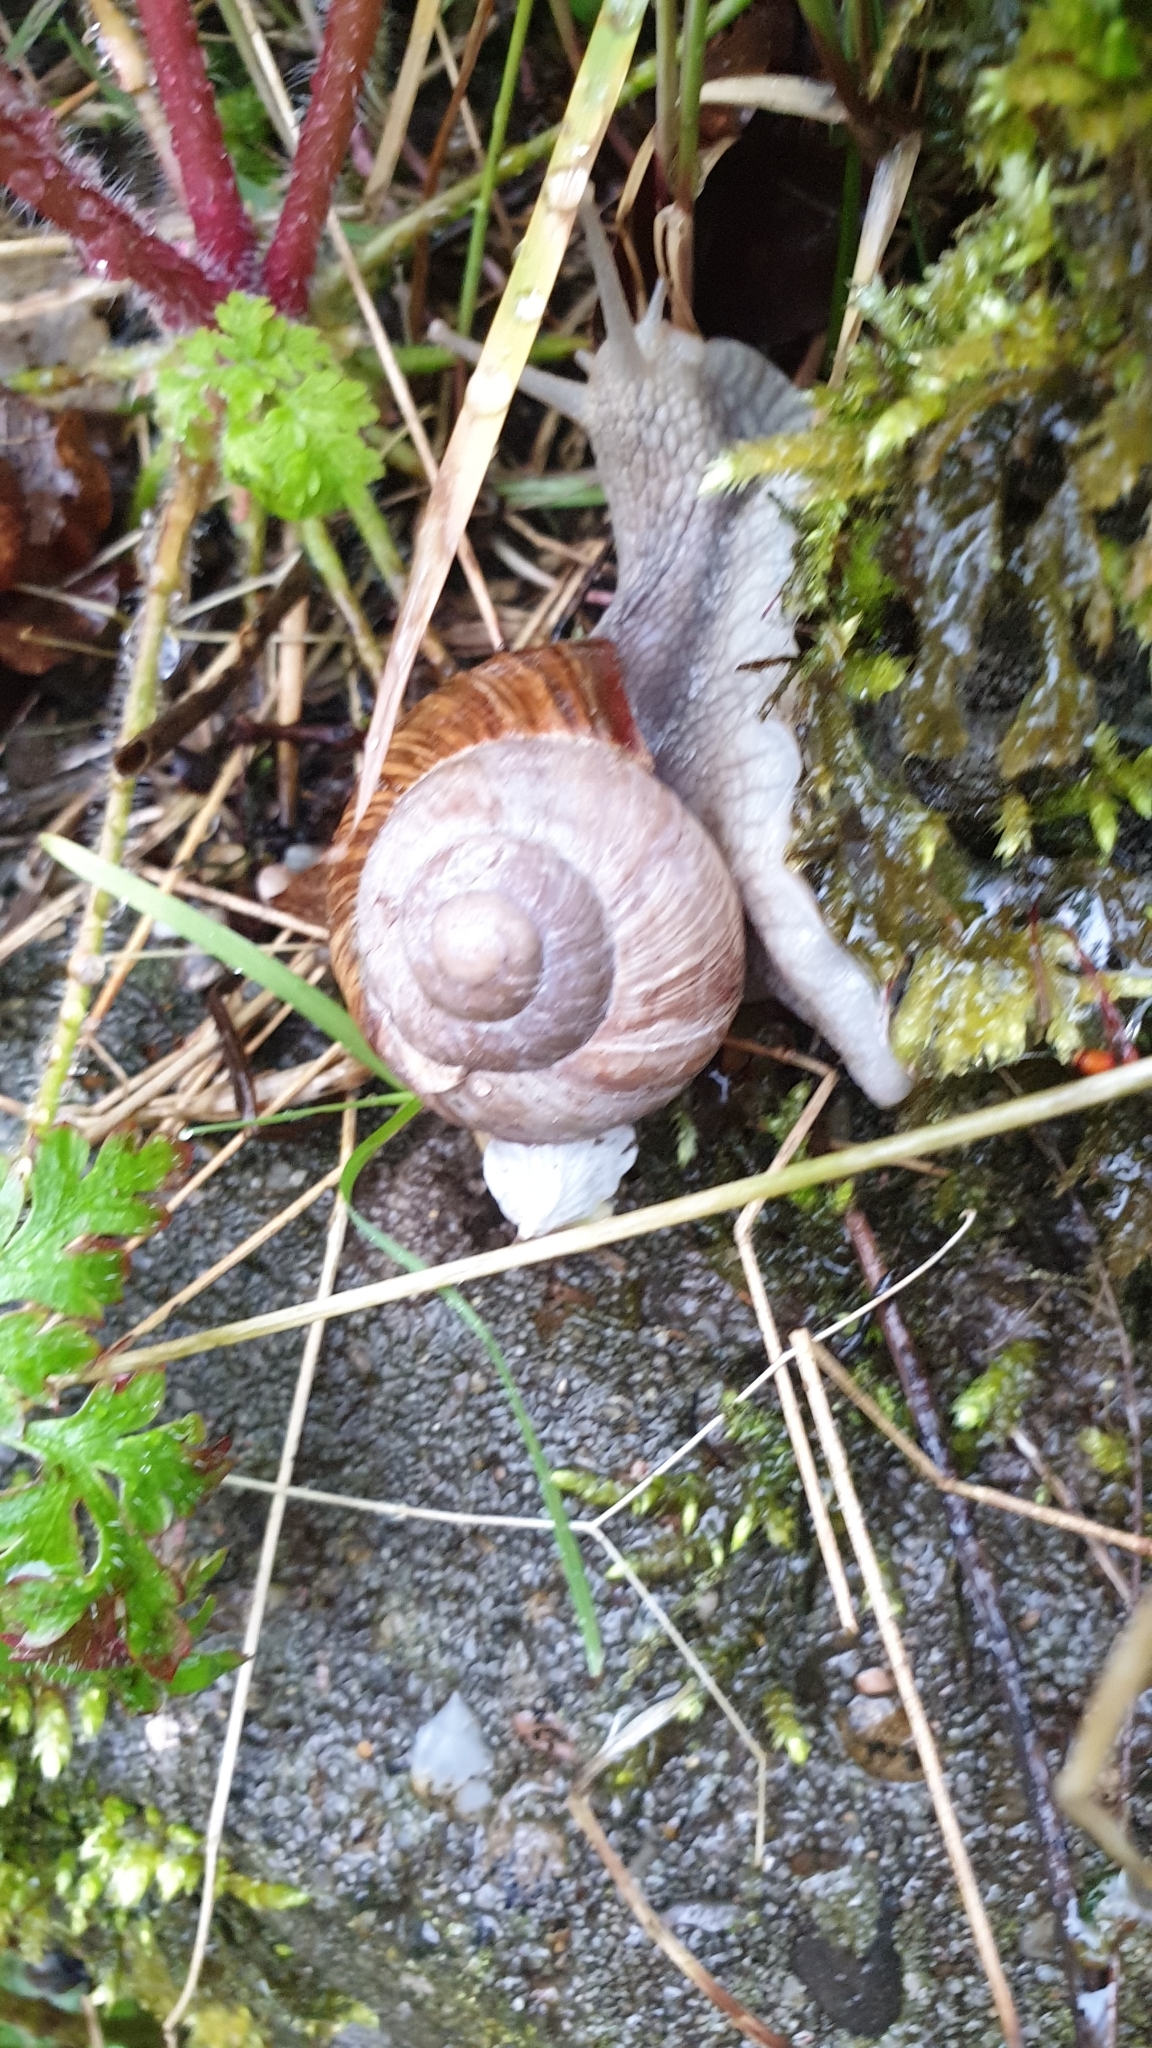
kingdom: Animalia
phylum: Mollusca
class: Gastropoda
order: Stylommatophora
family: Helicidae
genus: Helix
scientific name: Helix pomatia
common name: Roman snail
